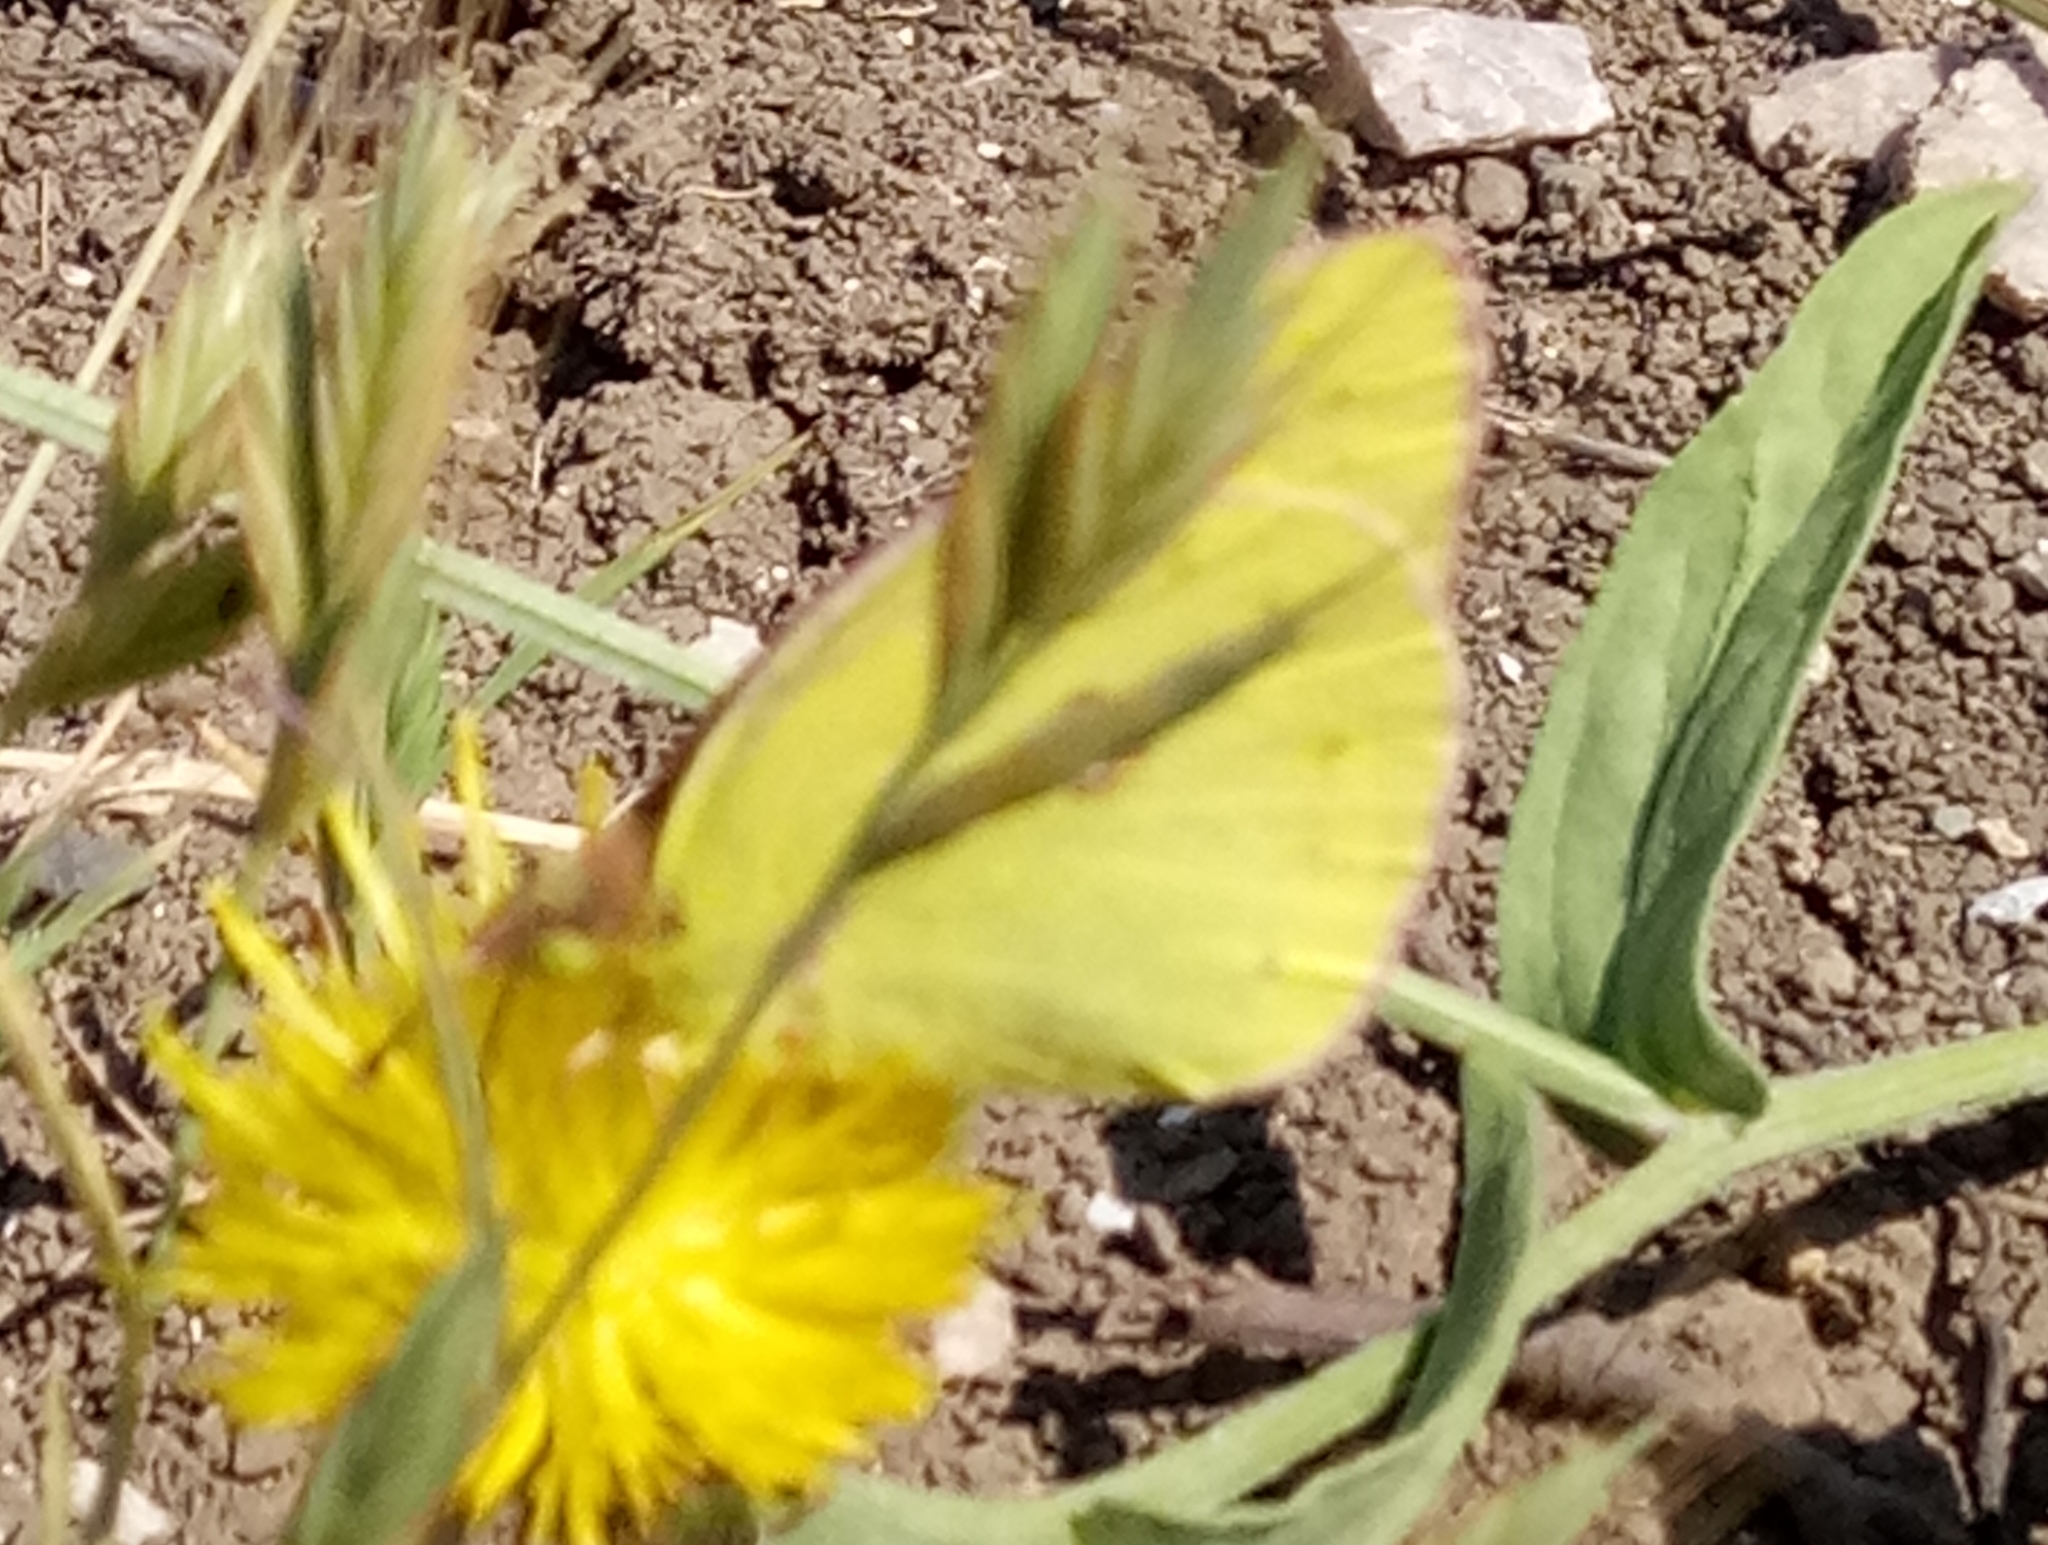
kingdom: Animalia
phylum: Arthropoda
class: Insecta
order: Lepidoptera
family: Pieridae
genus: Colias
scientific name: Colias croceus
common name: Clouded yellow
